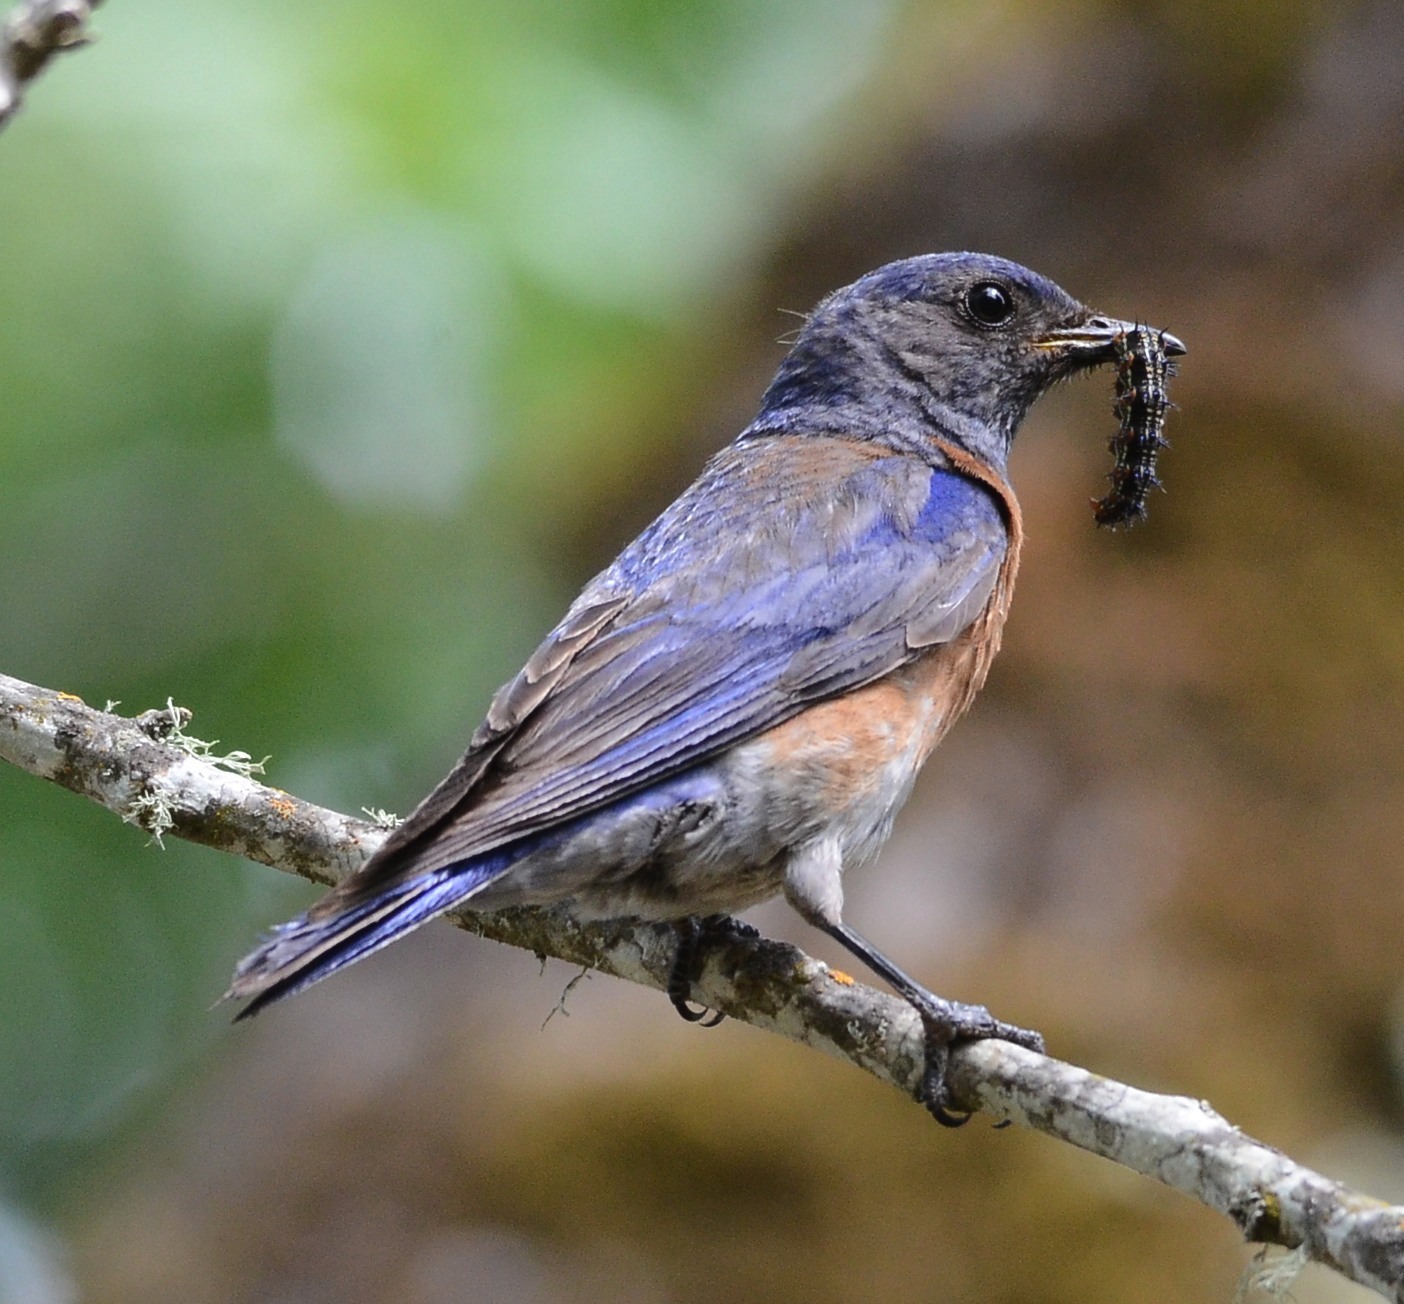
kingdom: Animalia
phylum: Chordata
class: Aves
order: Passeriformes
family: Turdidae
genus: Sialia
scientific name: Sialia mexicana
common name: Western bluebird
